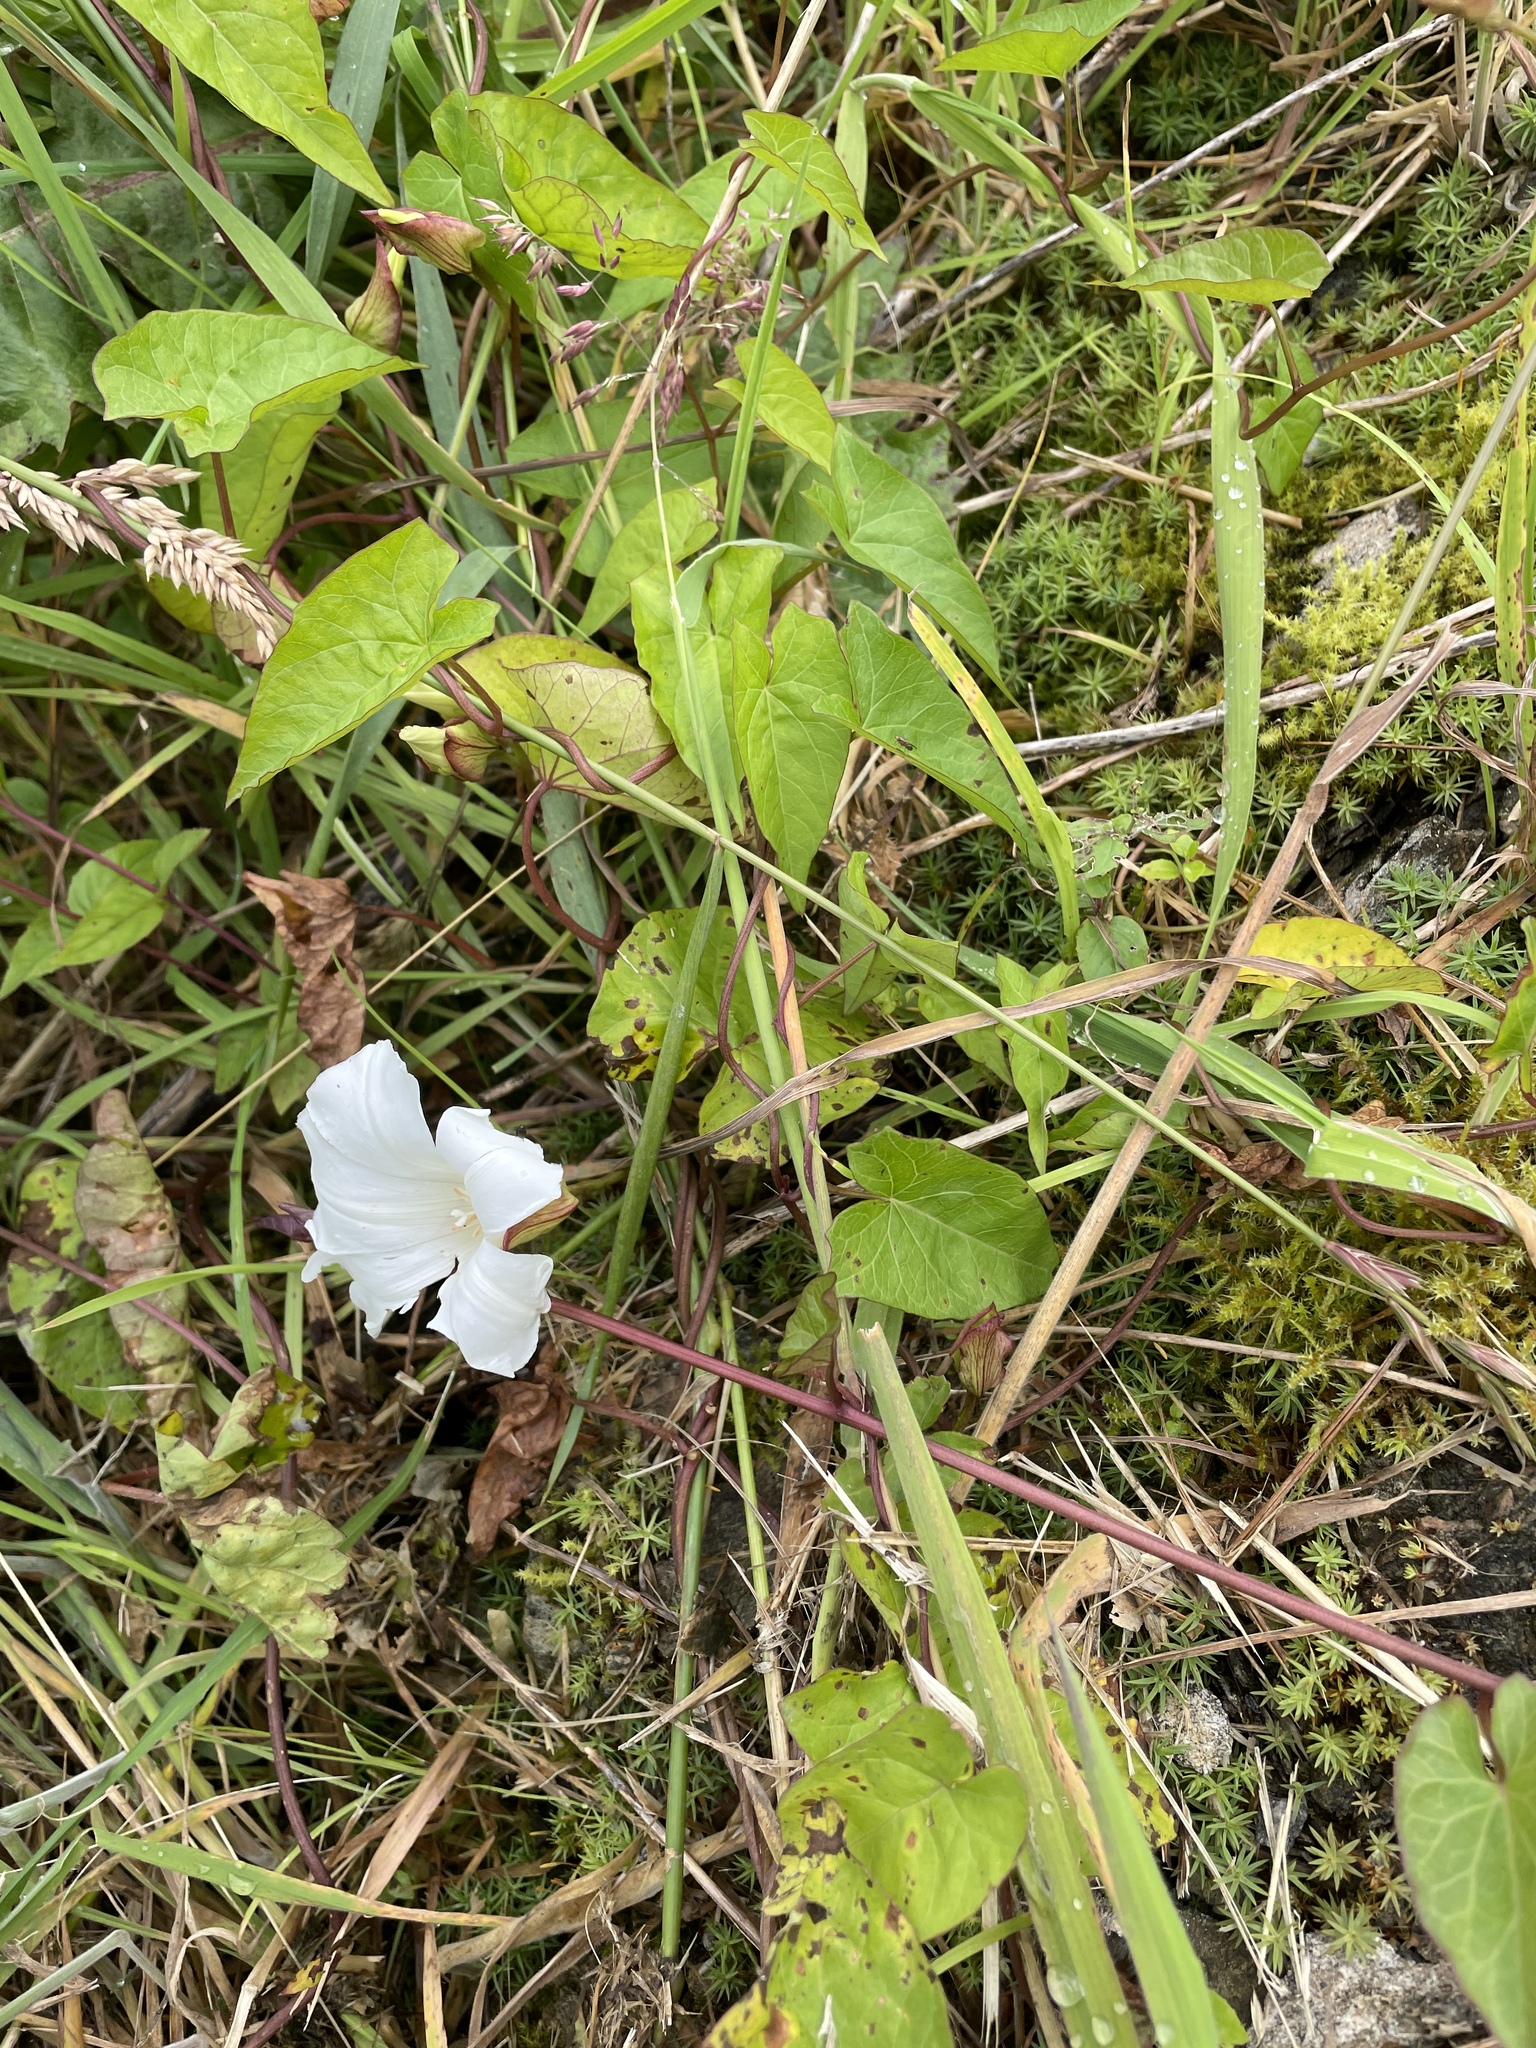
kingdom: Plantae
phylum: Tracheophyta
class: Magnoliopsida
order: Solanales
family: Convolvulaceae
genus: Calystegia
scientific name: Calystegia sepium
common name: Hedge bindweed
